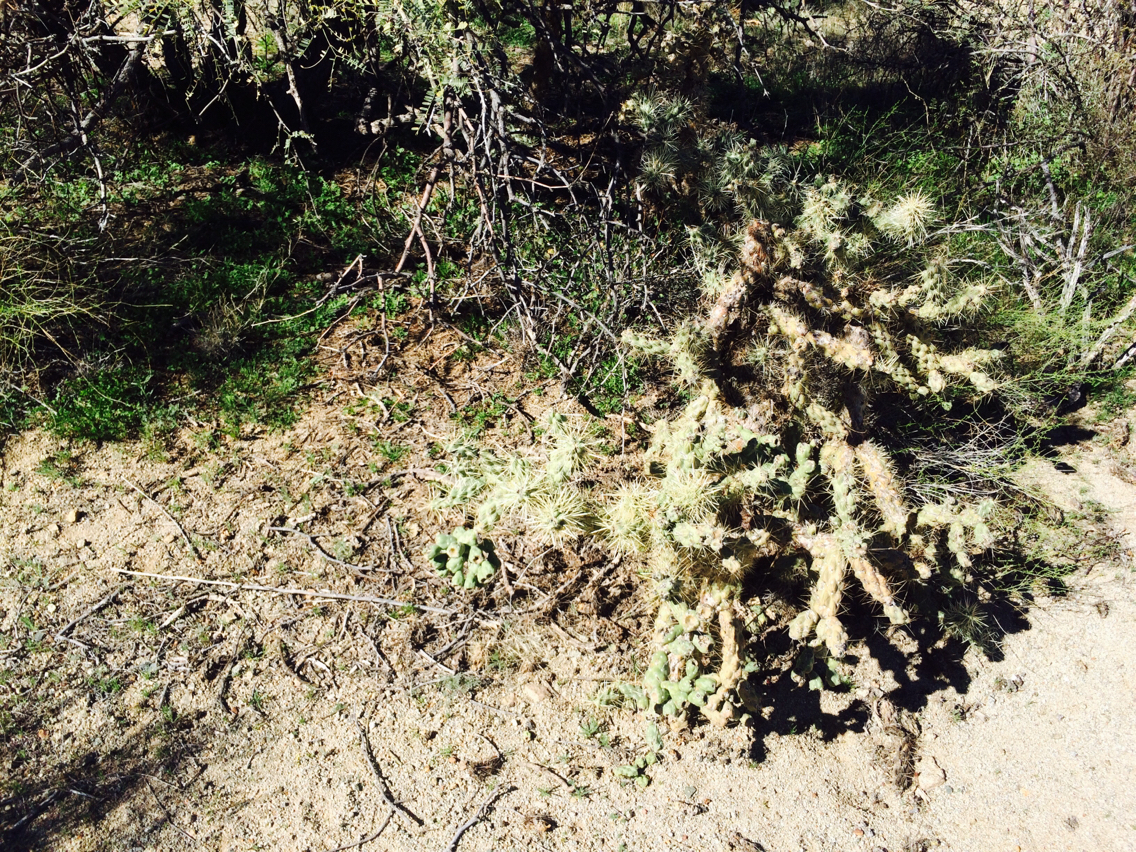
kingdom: Plantae
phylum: Tracheophyta
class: Magnoliopsida
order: Caryophyllales
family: Cactaceae
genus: Cylindropuntia
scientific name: Cylindropuntia fulgida
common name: Jumping cholla
